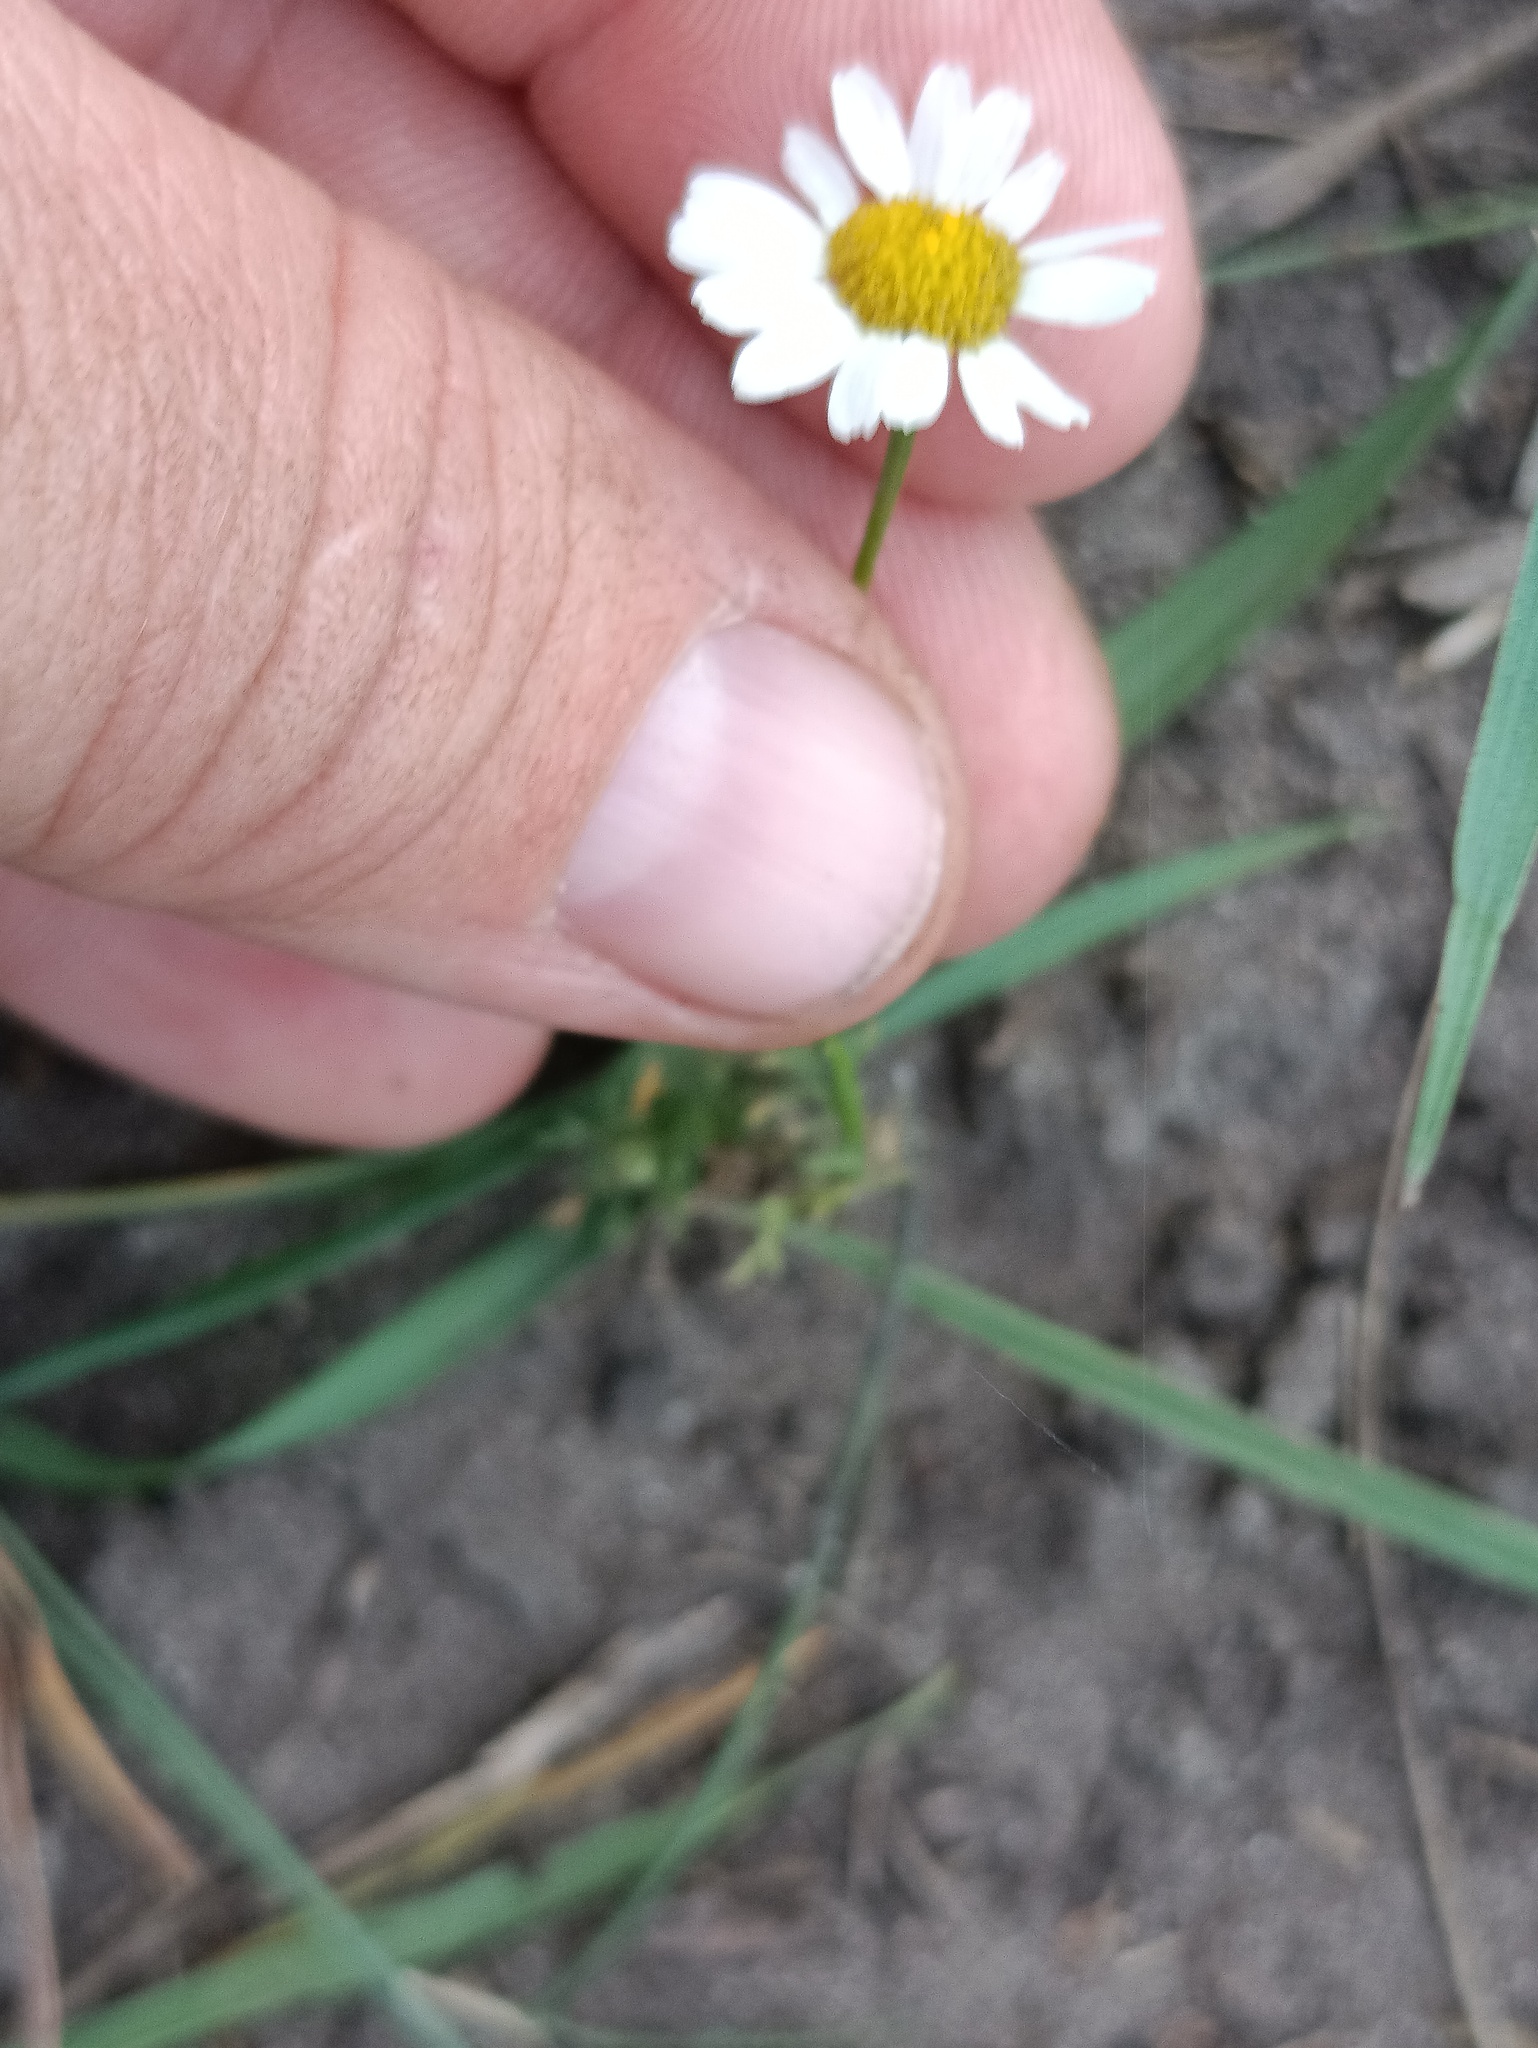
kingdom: Plantae
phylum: Tracheophyta
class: Magnoliopsida
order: Asterales
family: Asteraceae
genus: Tripleurospermum
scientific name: Tripleurospermum inodorum
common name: Scentless mayweed
